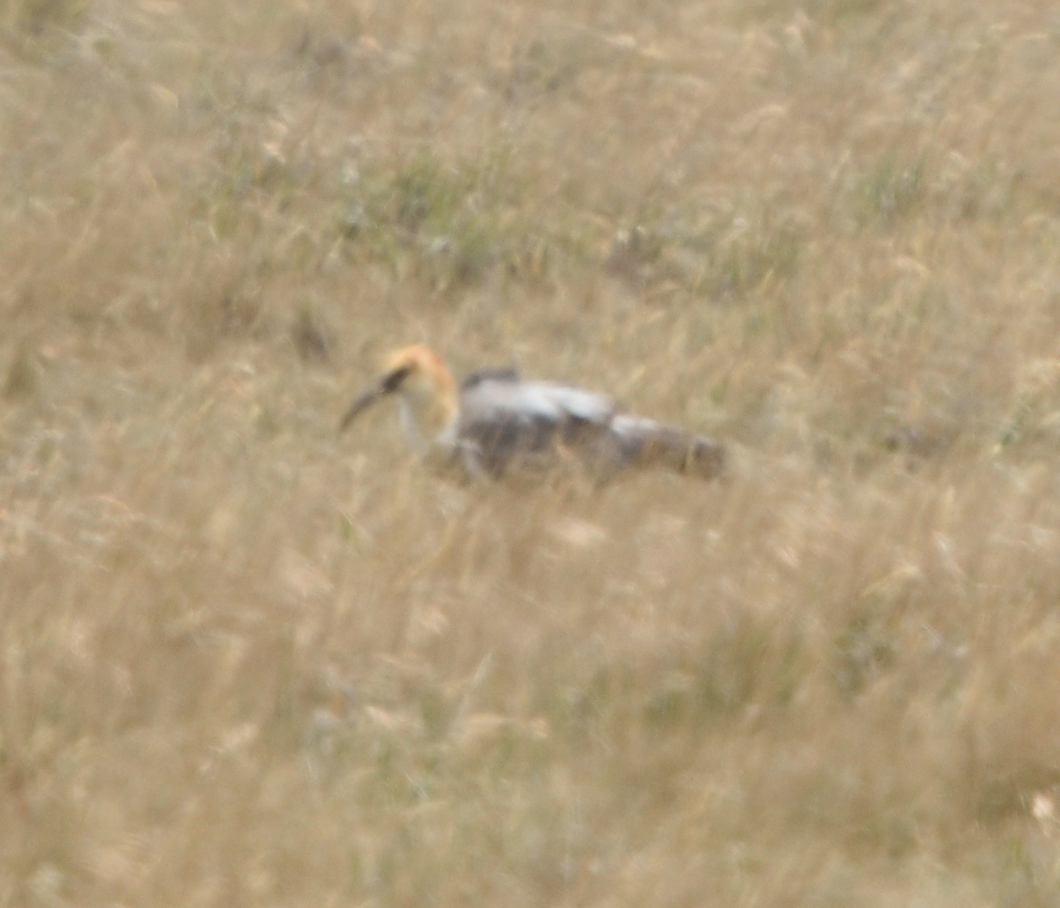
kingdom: Animalia
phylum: Chordata
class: Aves
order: Pelecaniformes
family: Threskiornithidae
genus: Theristicus
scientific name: Theristicus melanopis
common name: Black-faced ibis
